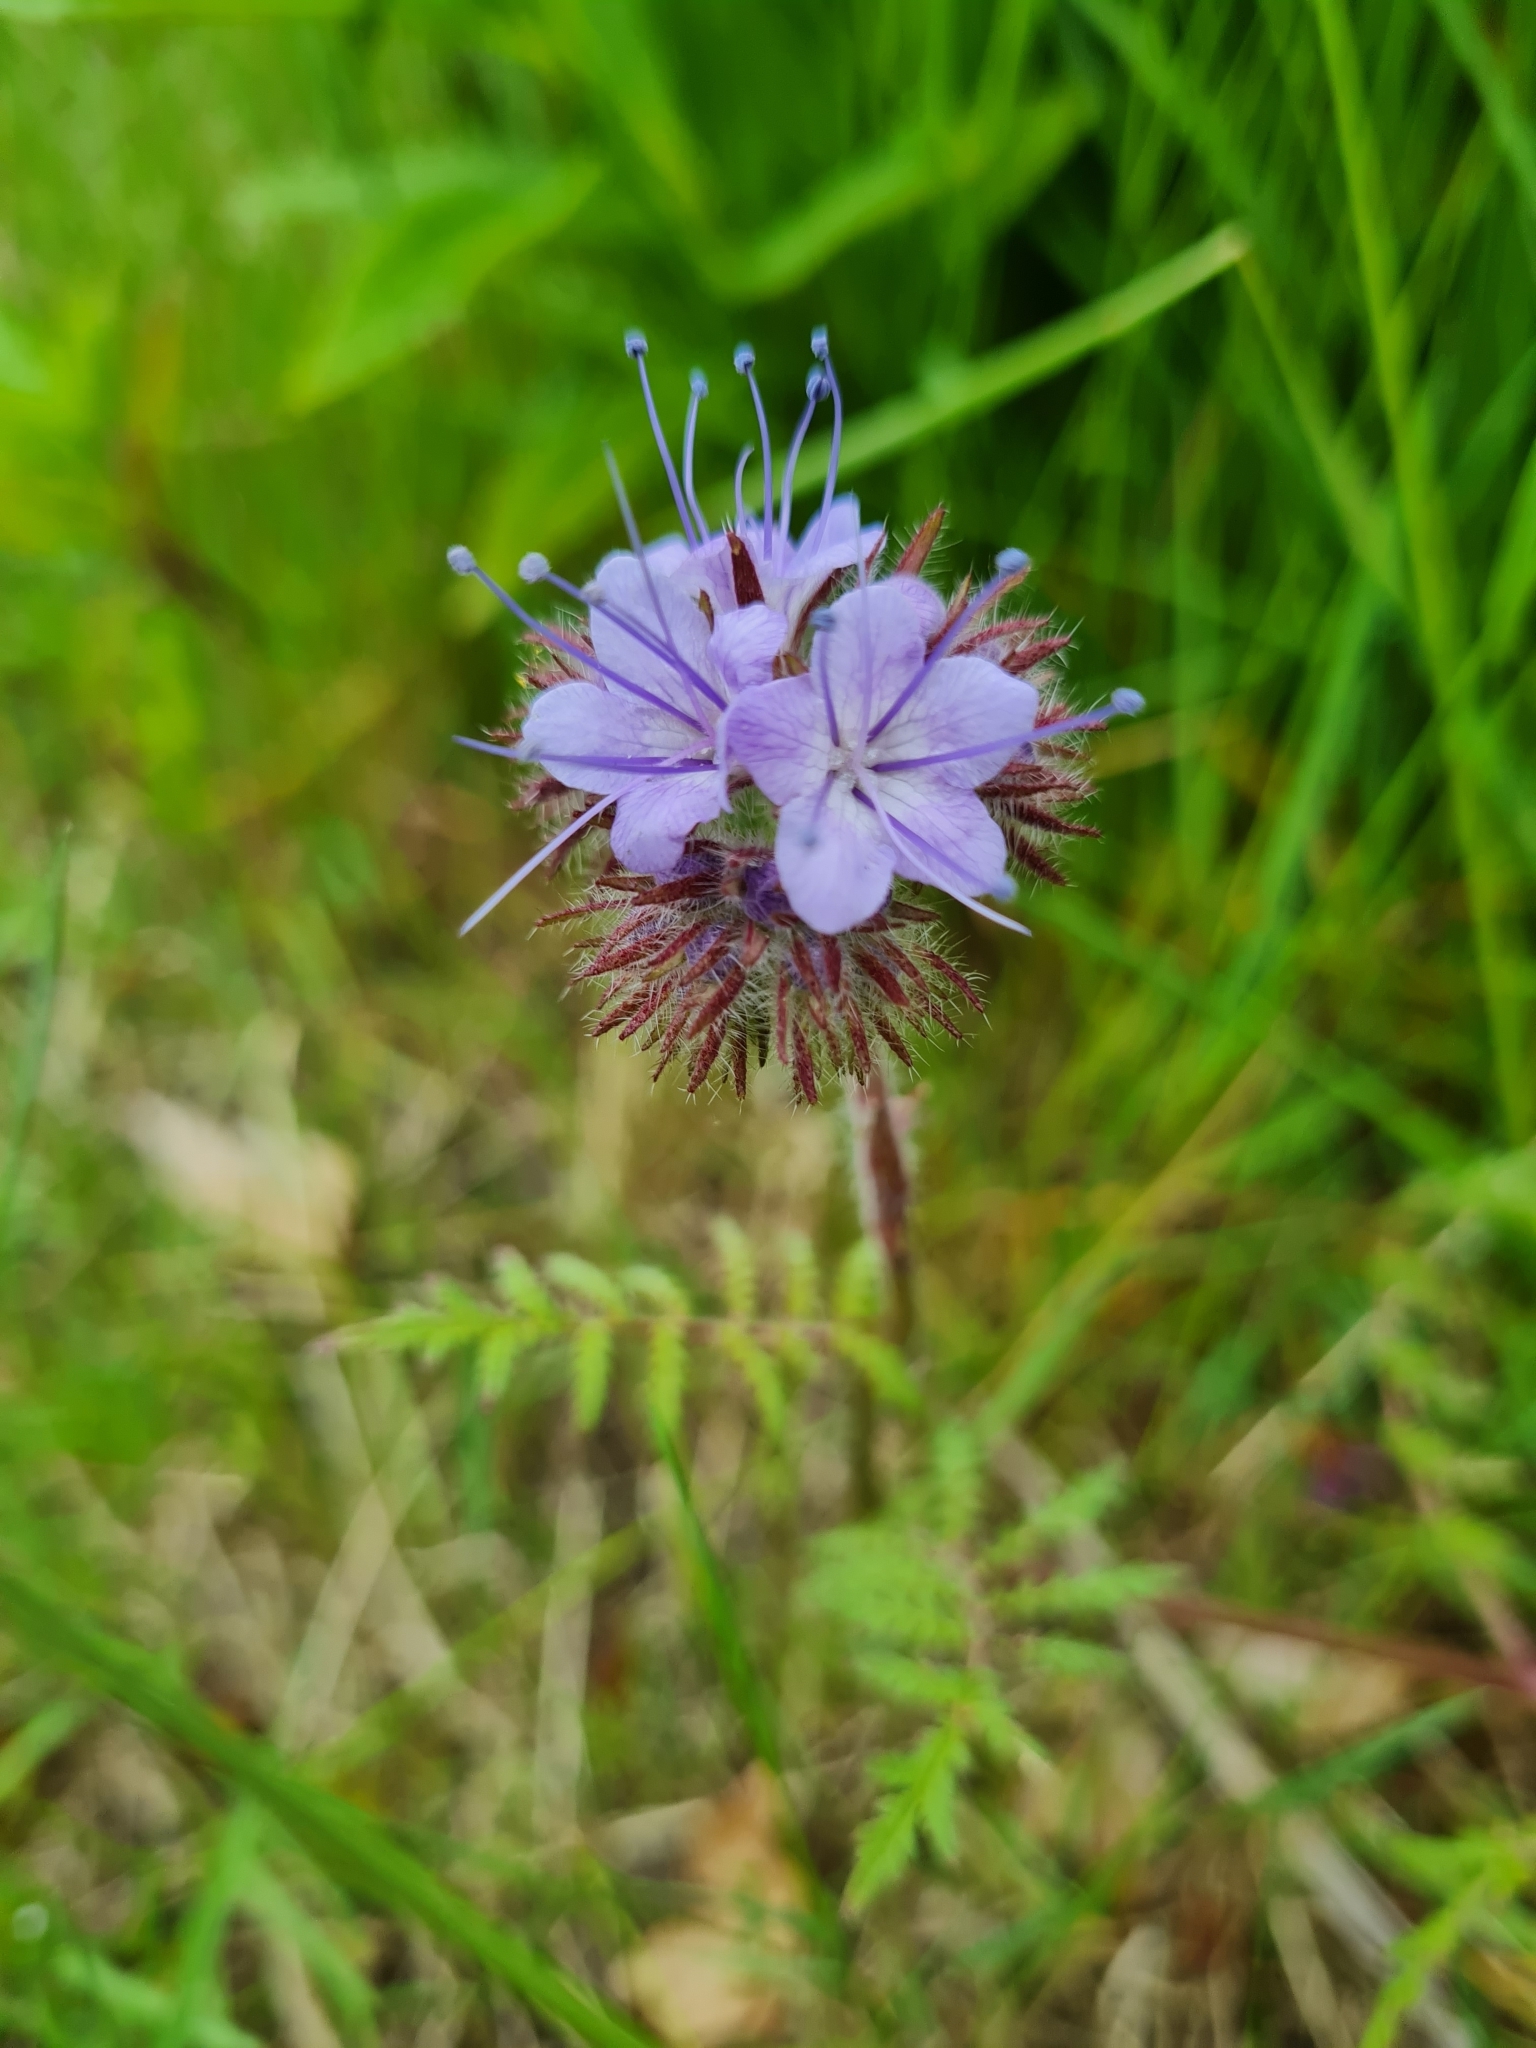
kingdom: Plantae
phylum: Tracheophyta
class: Magnoliopsida
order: Boraginales
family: Hydrophyllaceae
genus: Phacelia
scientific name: Phacelia tanacetifolia
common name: Phacelia
